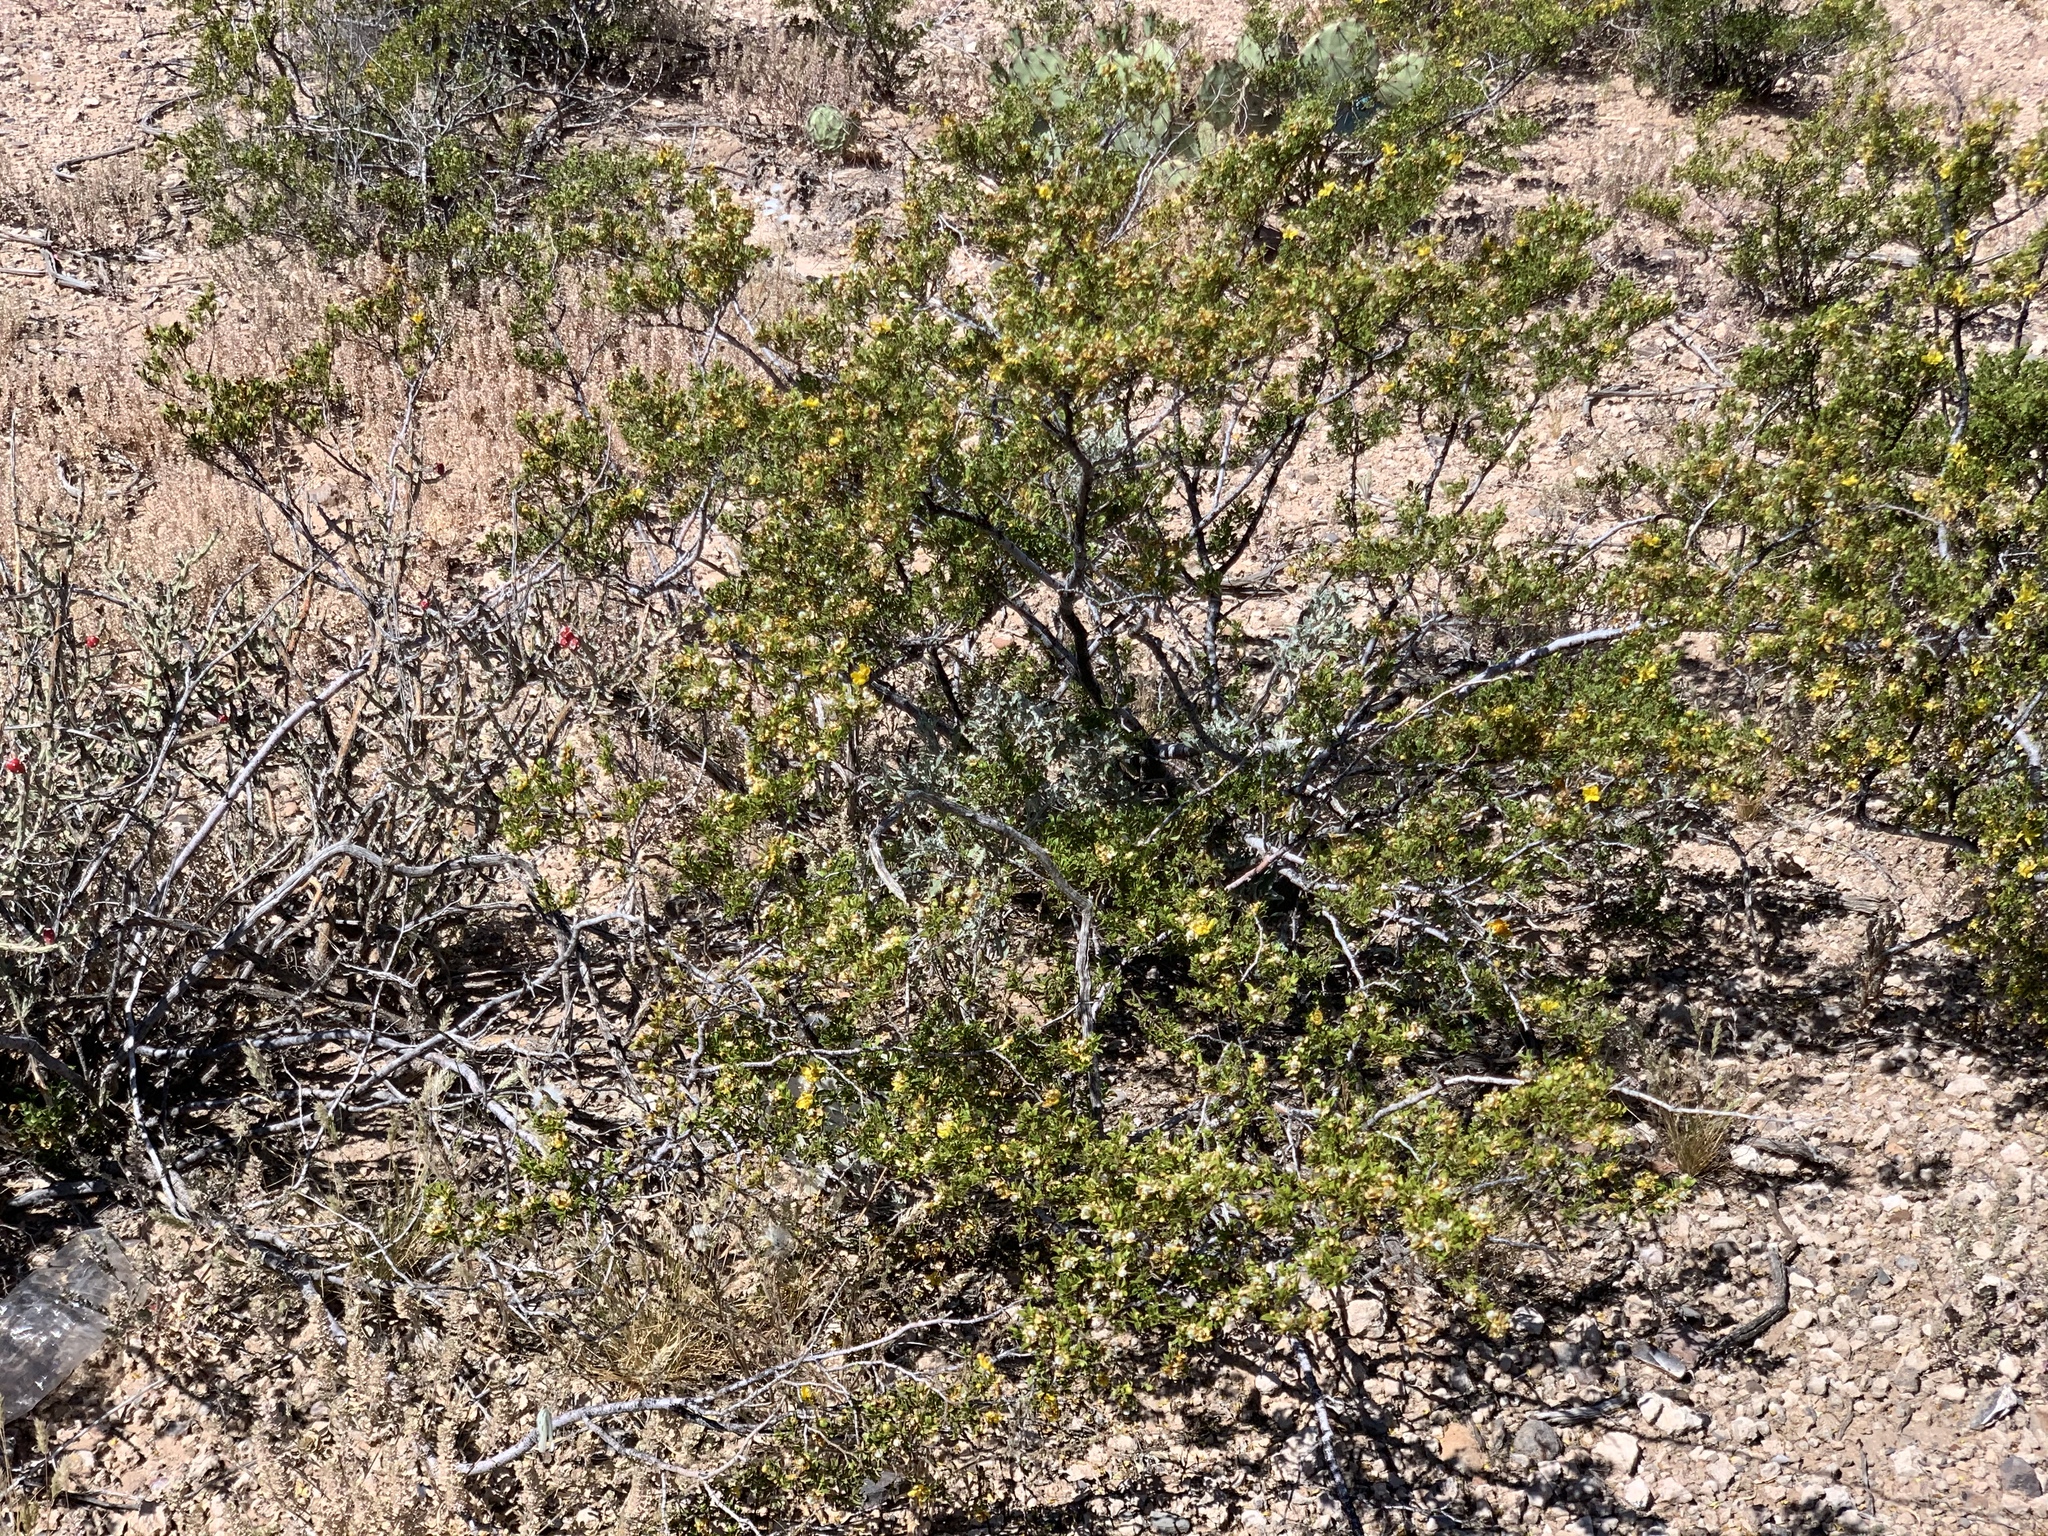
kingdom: Plantae
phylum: Tracheophyta
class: Magnoliopsida
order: Zygophyllales
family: Zygophyllaceae
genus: Larrea
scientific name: Larrea tridentata
